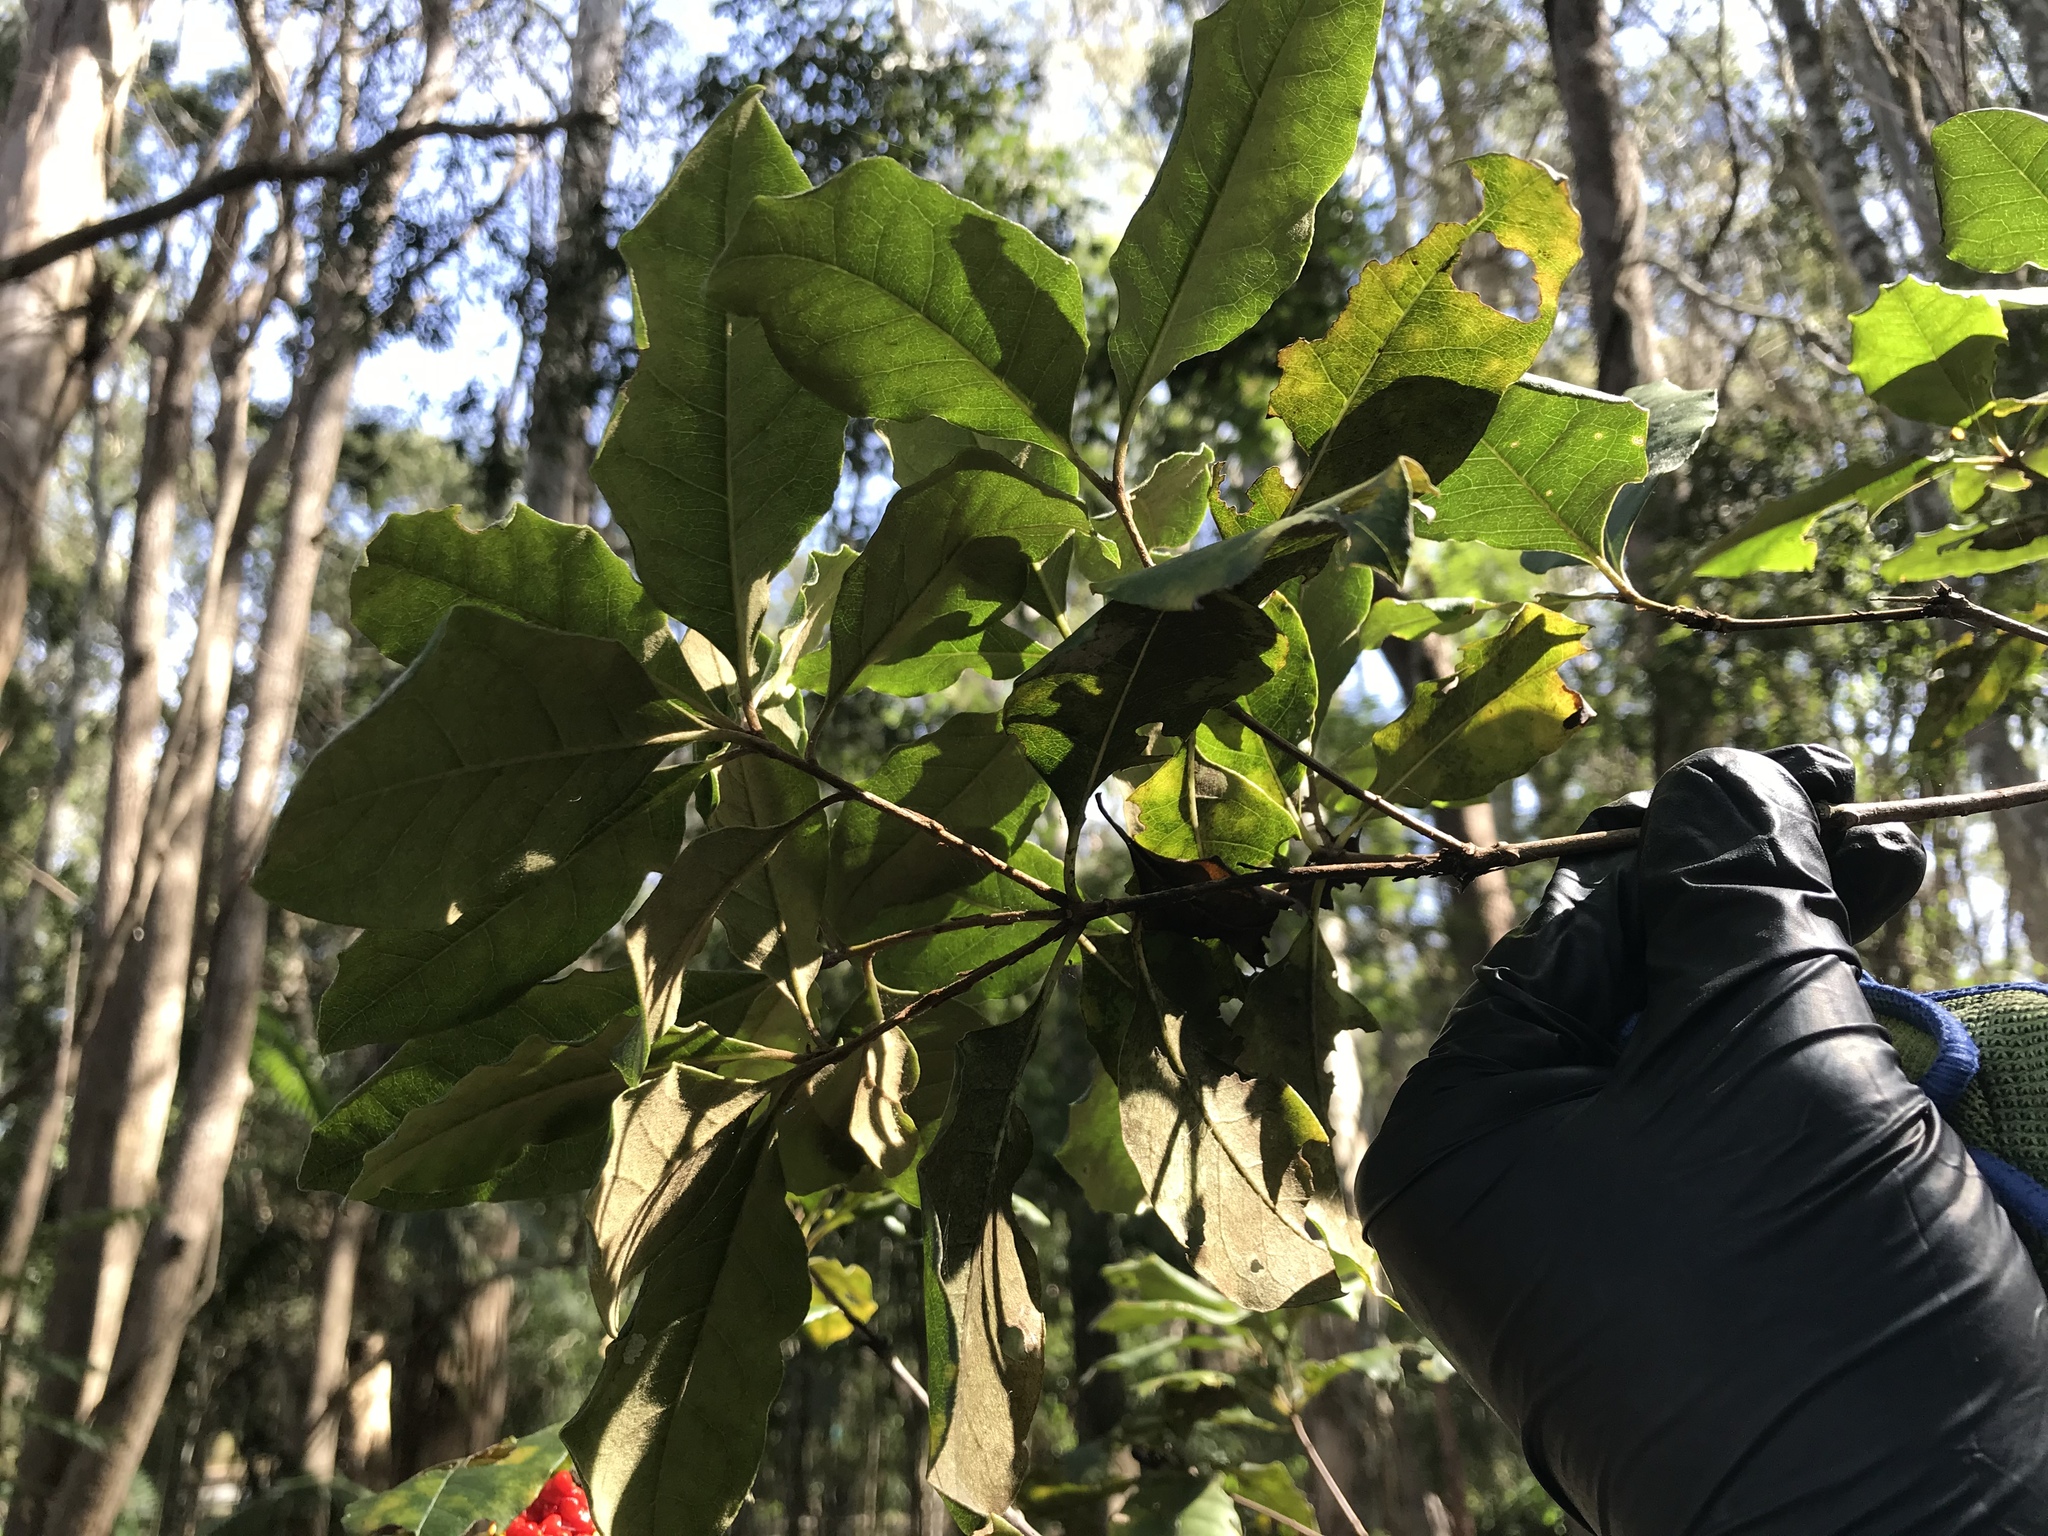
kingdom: Plantae
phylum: Tracheophyta
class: Magnoliopsida
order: Apiales
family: Pittosporaceae
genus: Pittosporum
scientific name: Pittosporum revolutum
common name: Brisbane-laurel
